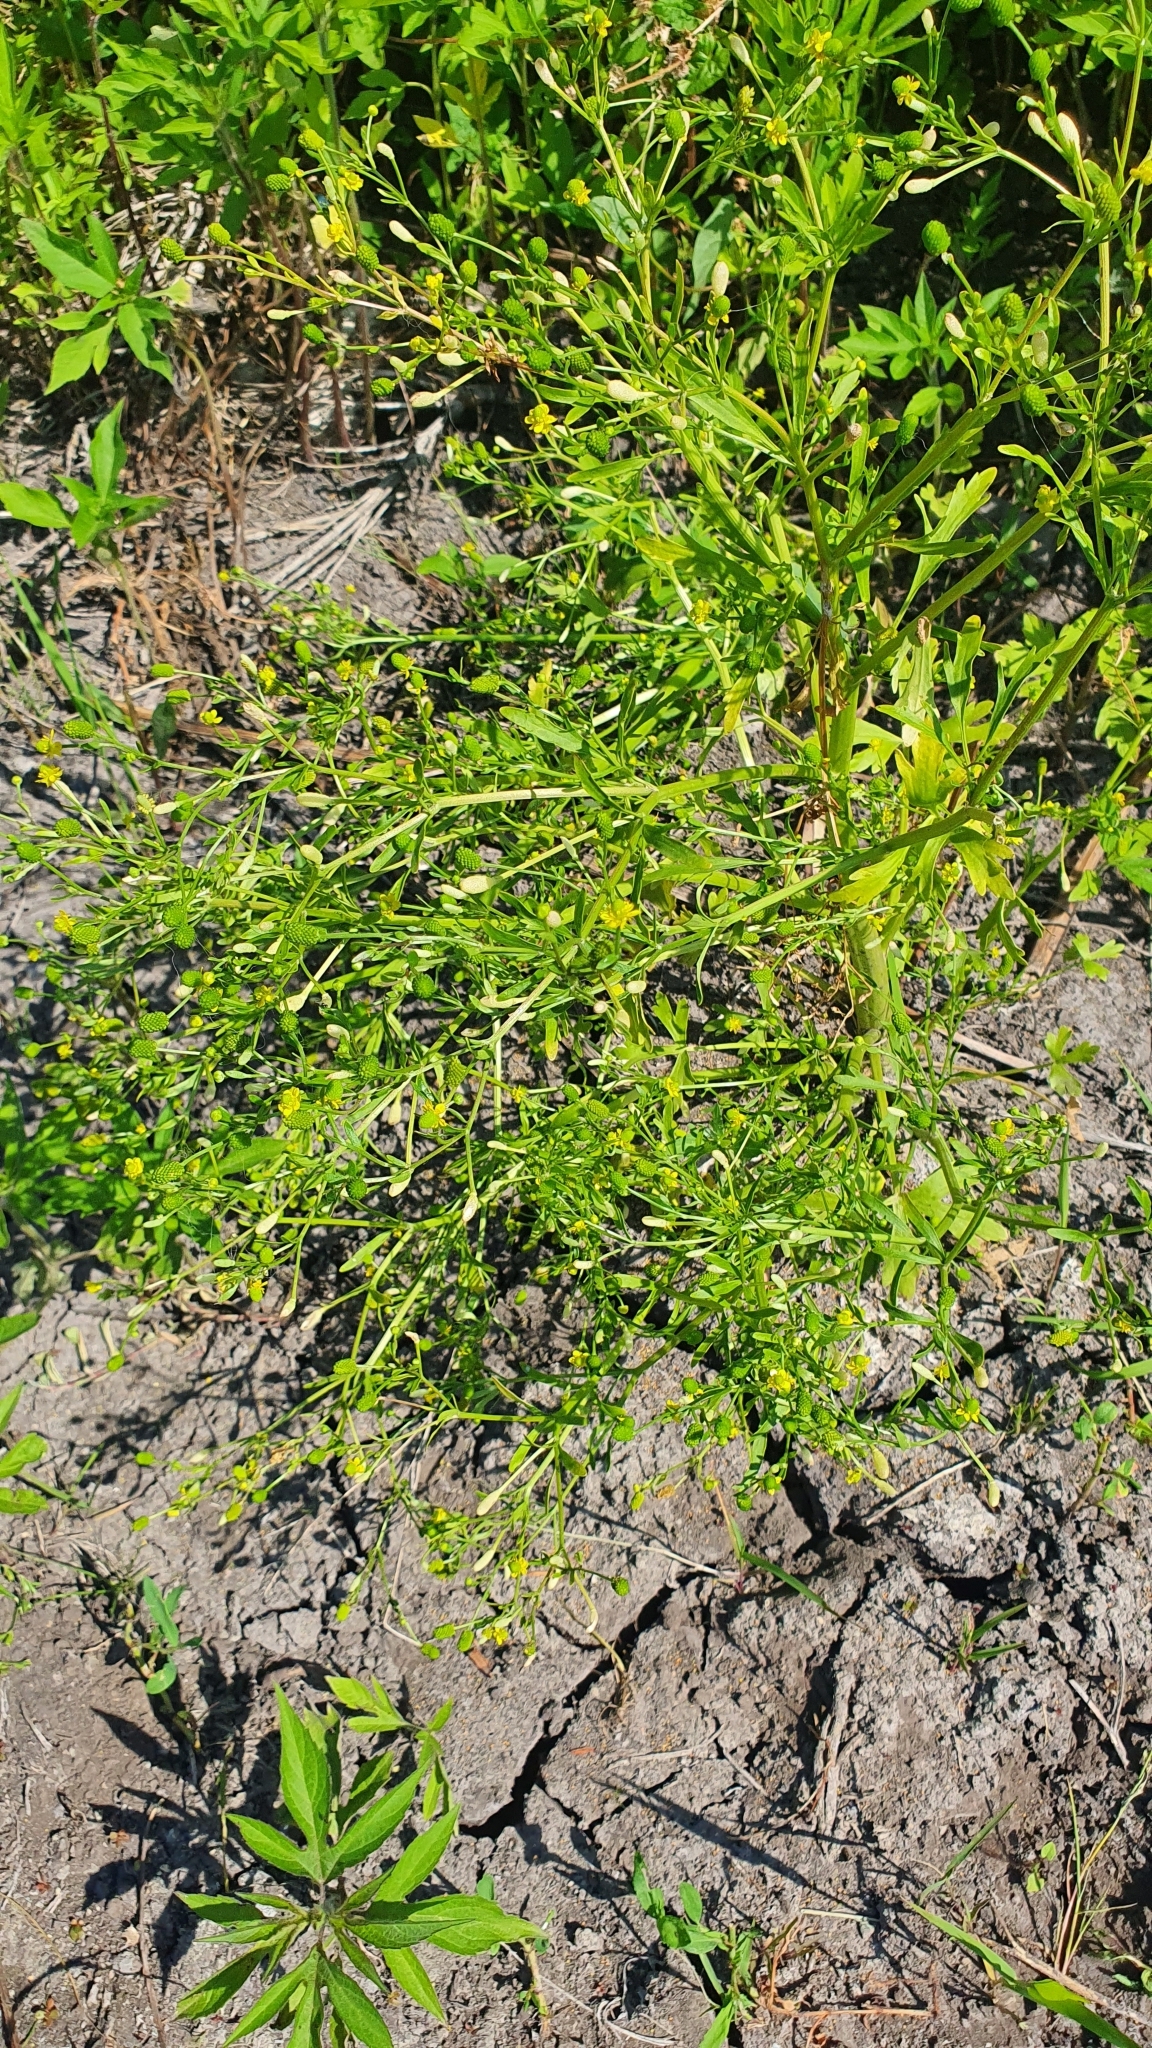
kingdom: Plantae
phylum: Tracheophyta
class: Magnoliopsida
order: Ranunculales
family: Ranunculaceae
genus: Ranunculus
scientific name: Ranunculus sceleratus
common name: Celery-leaved buttercup
